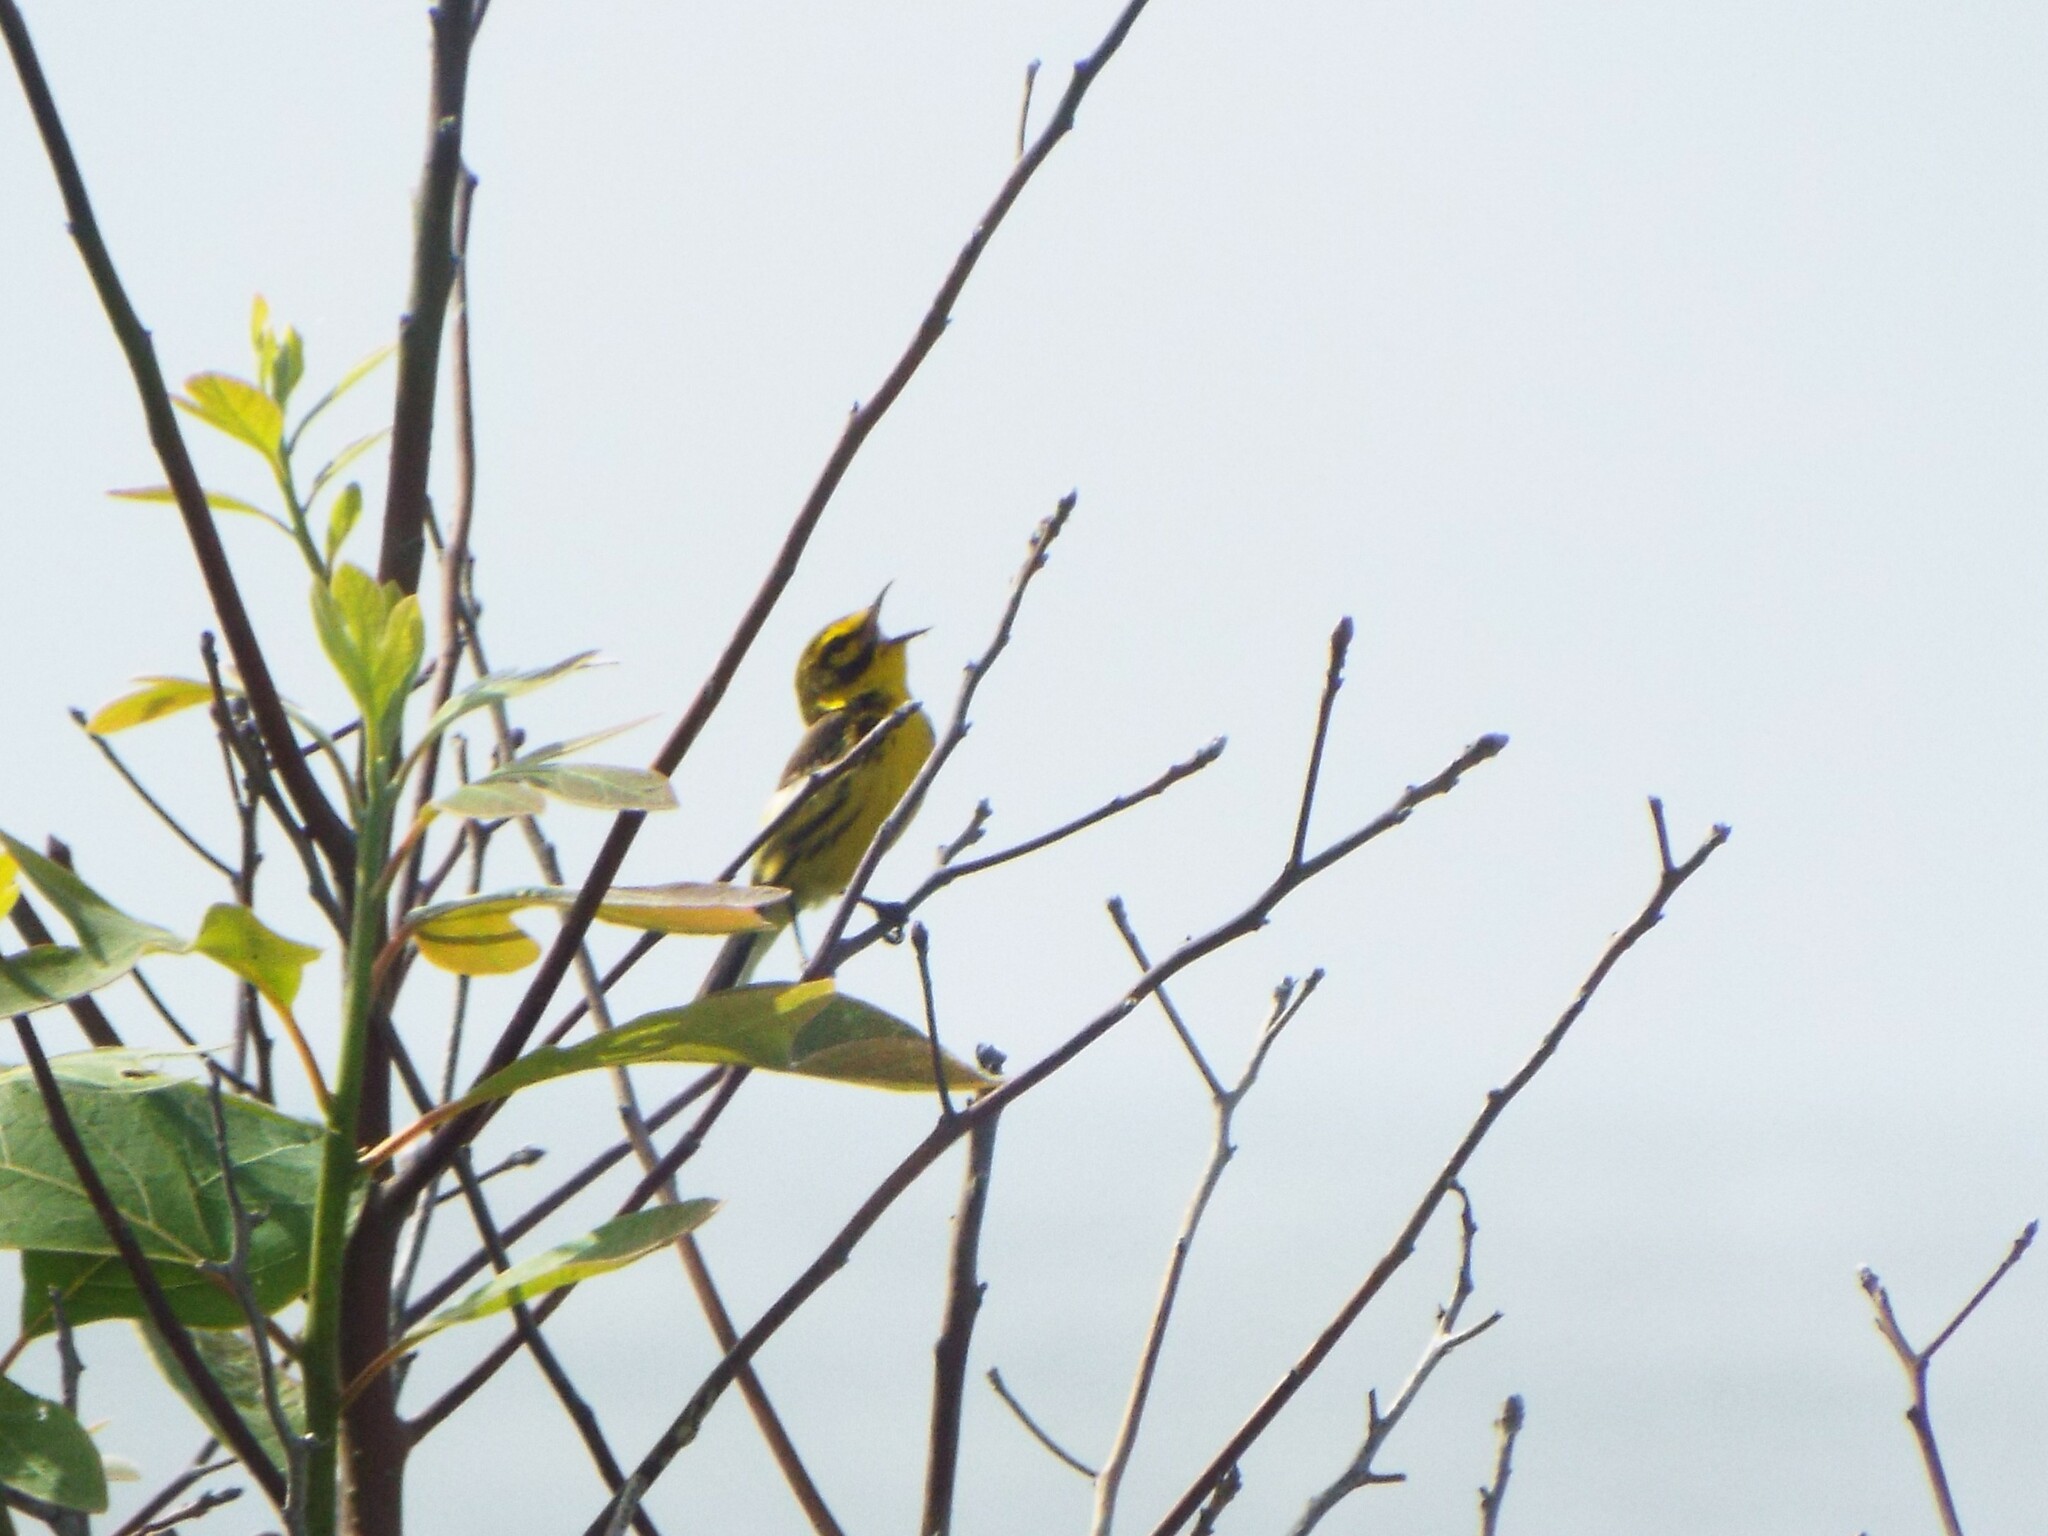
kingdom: Animalia
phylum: Chordata
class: Aves
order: Passeriformes
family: Parulidae
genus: Setophaga
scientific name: Setophaga discolor
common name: Prairie warbler
